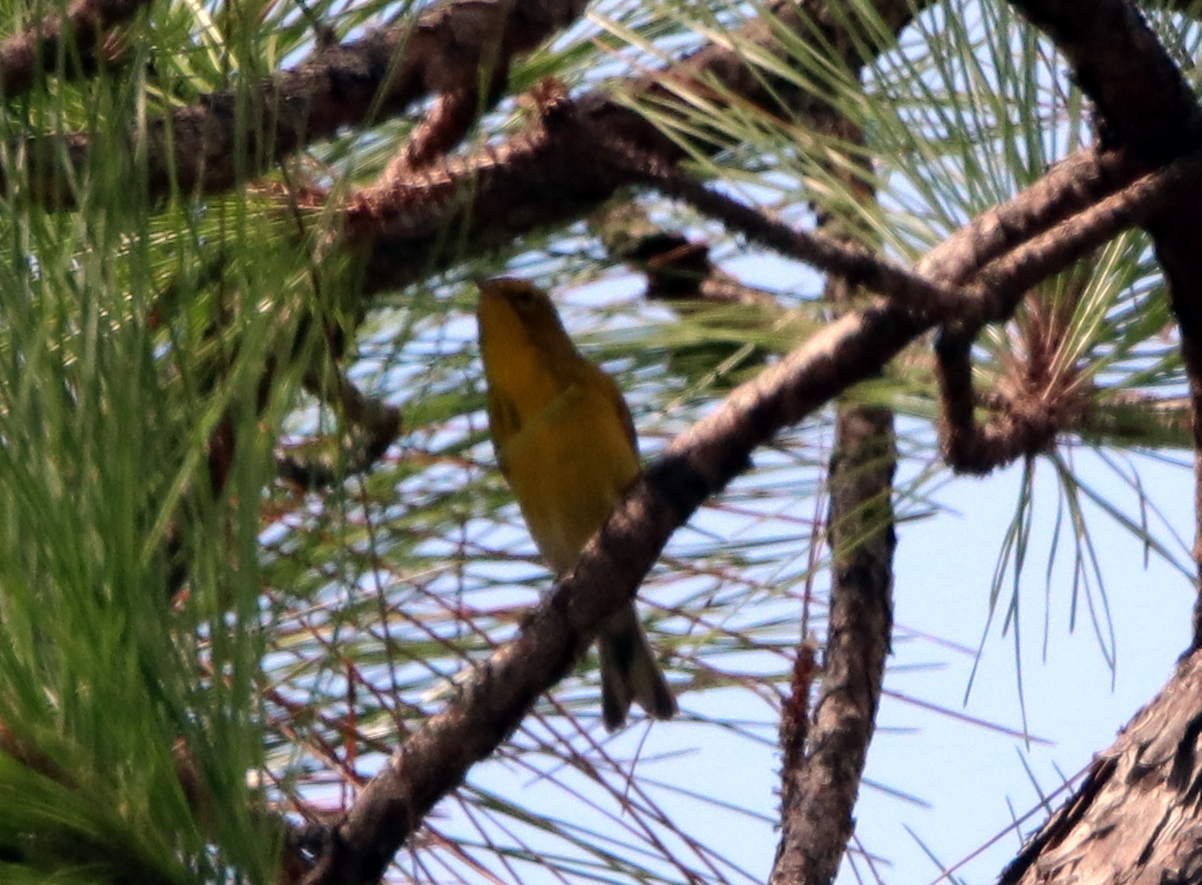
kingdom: Animalia
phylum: Chordata
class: Aves
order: Passeriformes
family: Parulidae
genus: Setophaga
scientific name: Setophaga pinus
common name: Pine warbler
